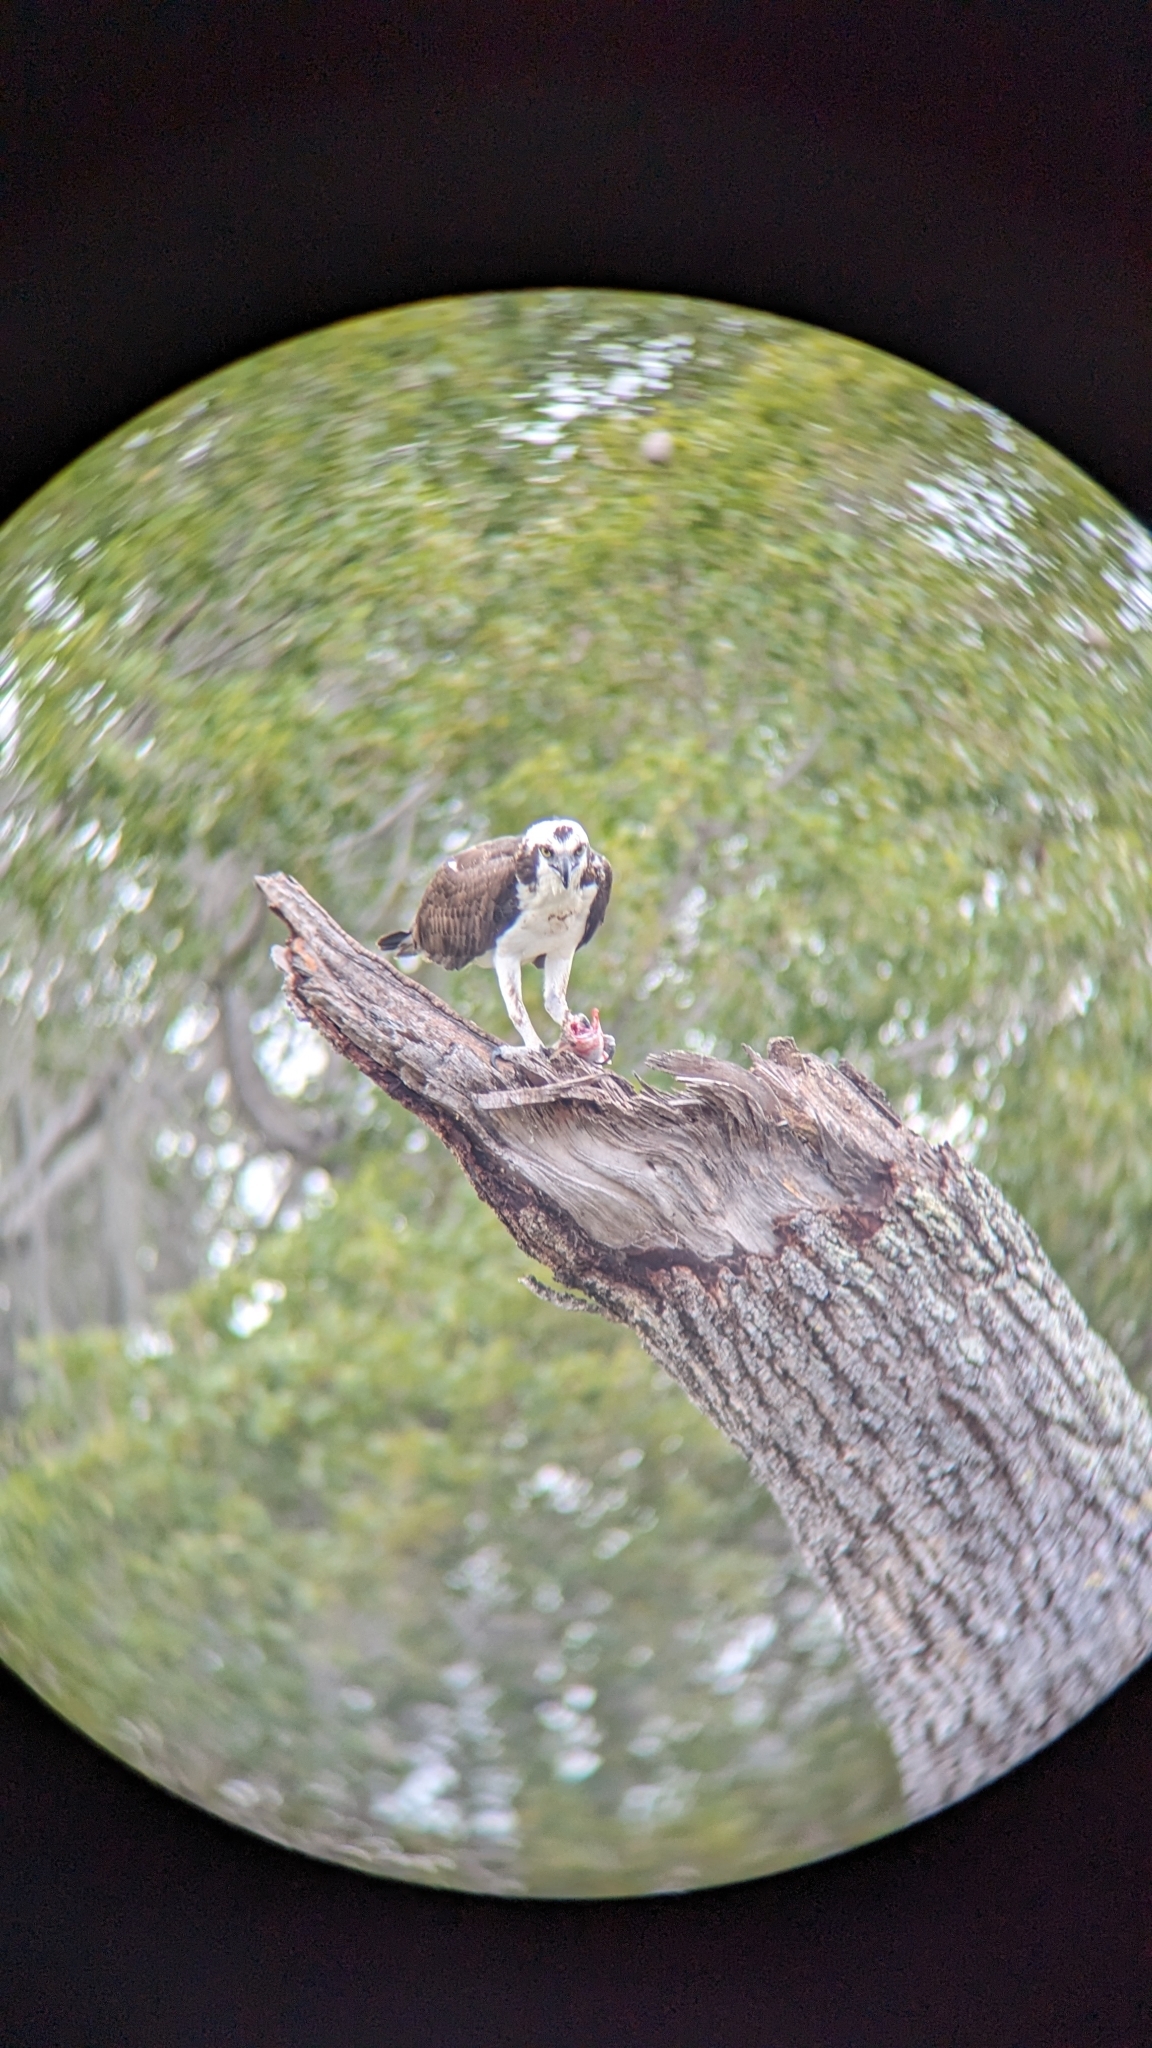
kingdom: Animalia
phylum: Chordata
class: Aves
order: Accipitriformes
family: Pandionidae
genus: Pandion
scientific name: Pandion haliaetus
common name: Osprey
